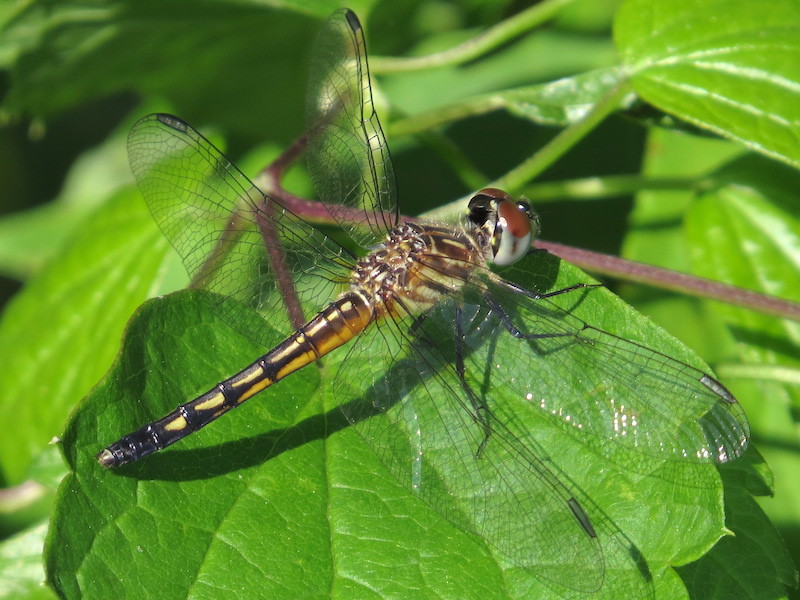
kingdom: Animalia
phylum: Arthropoda
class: Insecta
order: Odonata
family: Libellulidae
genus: Pachydiplax
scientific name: Pachydiplax longipennis
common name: Blue dasher
